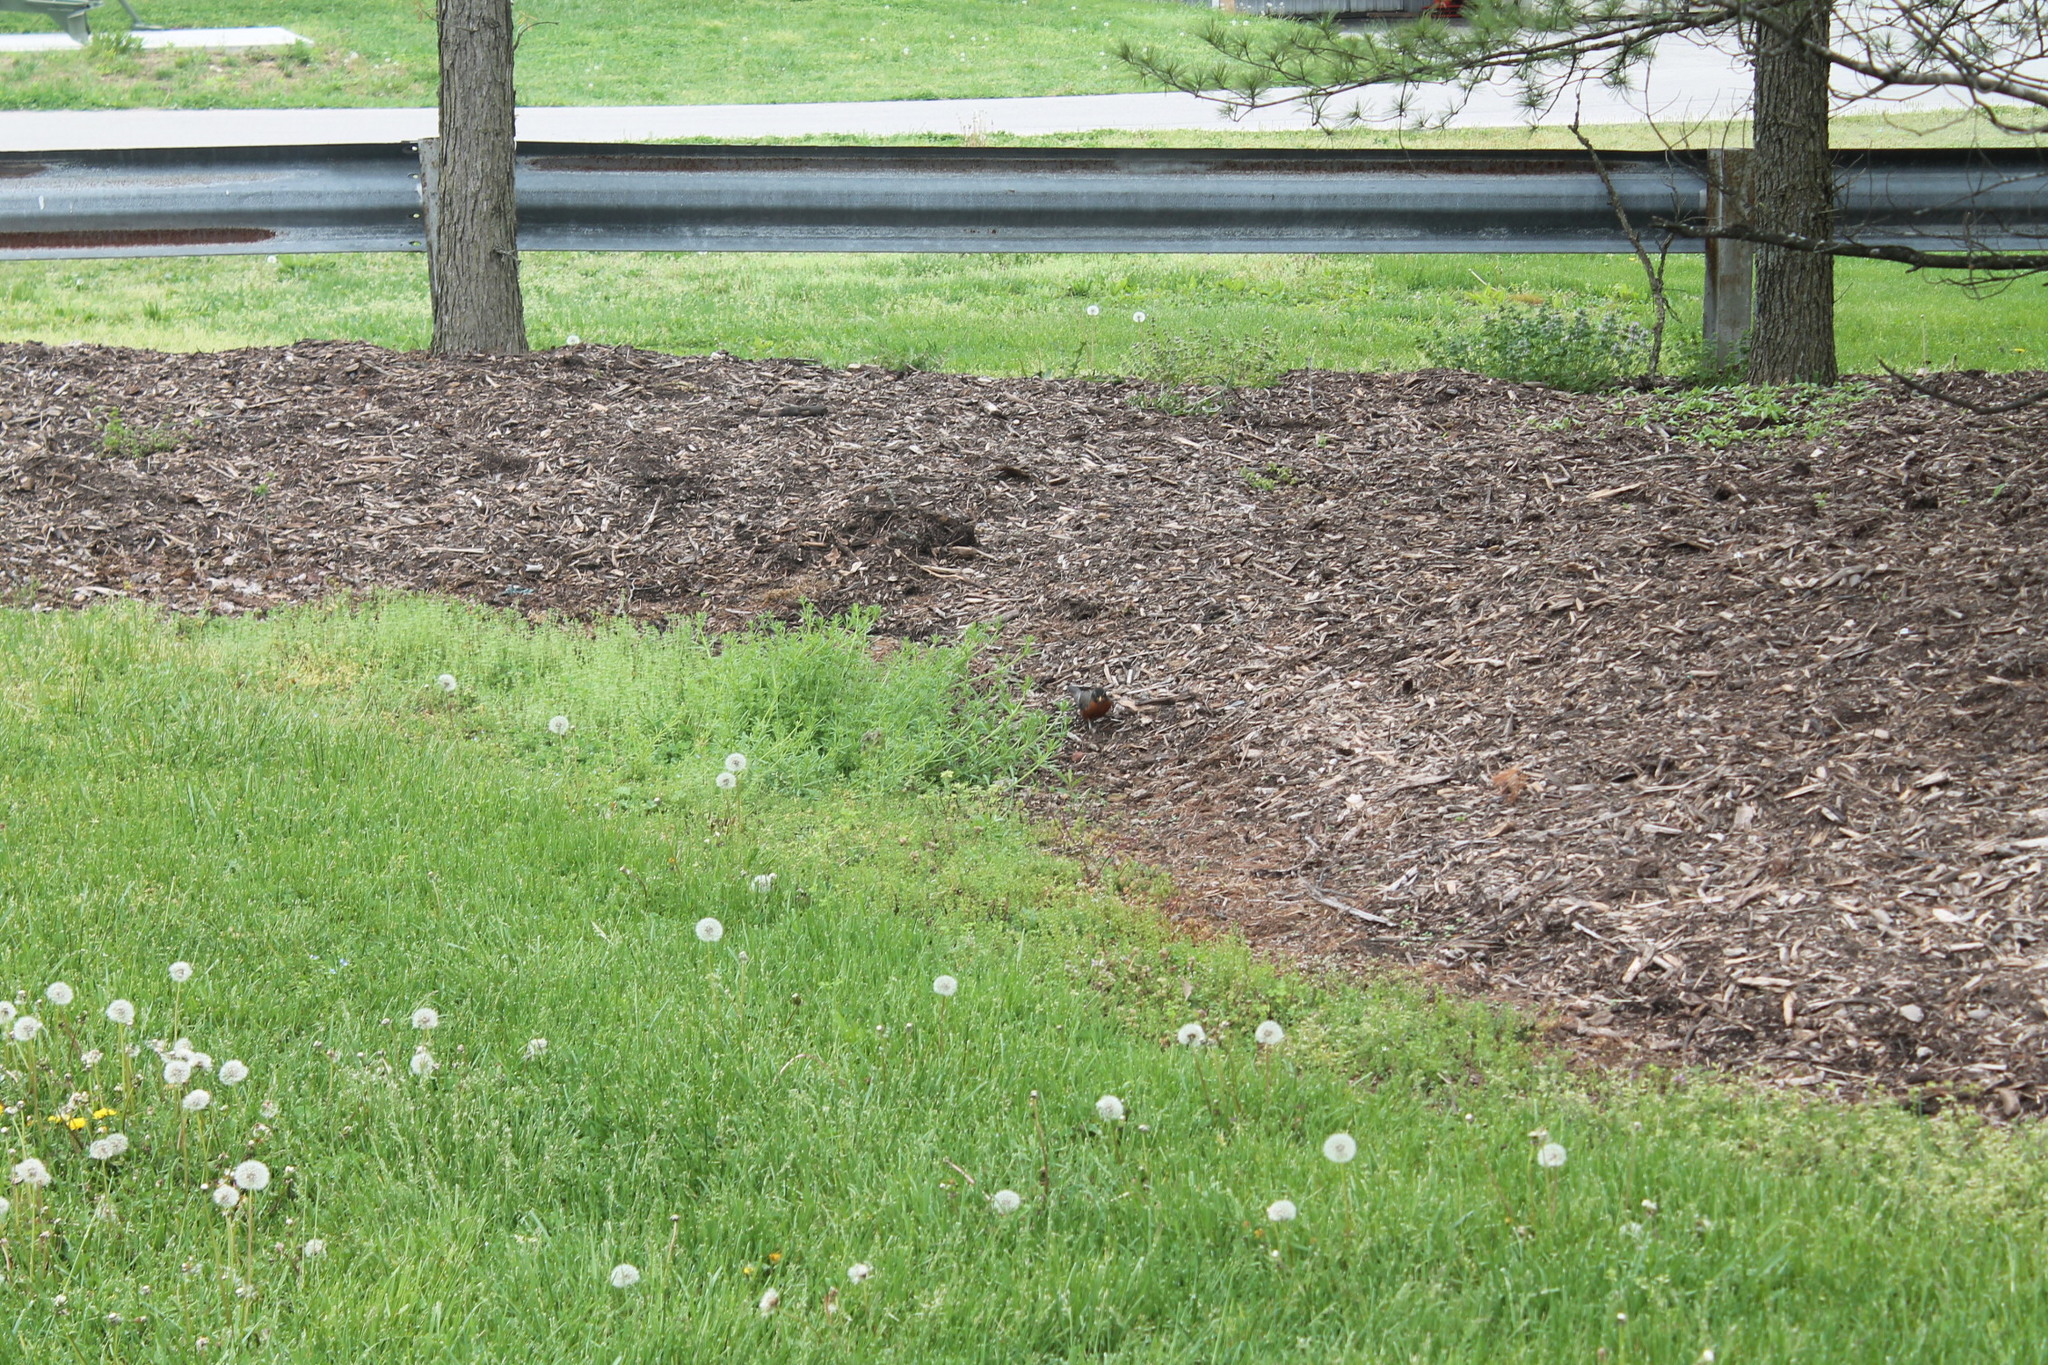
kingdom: Animalia
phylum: Chordata
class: Aves
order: Passeriformes
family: Turdidae
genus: Turdus
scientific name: Turdus migratorius
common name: American robin
